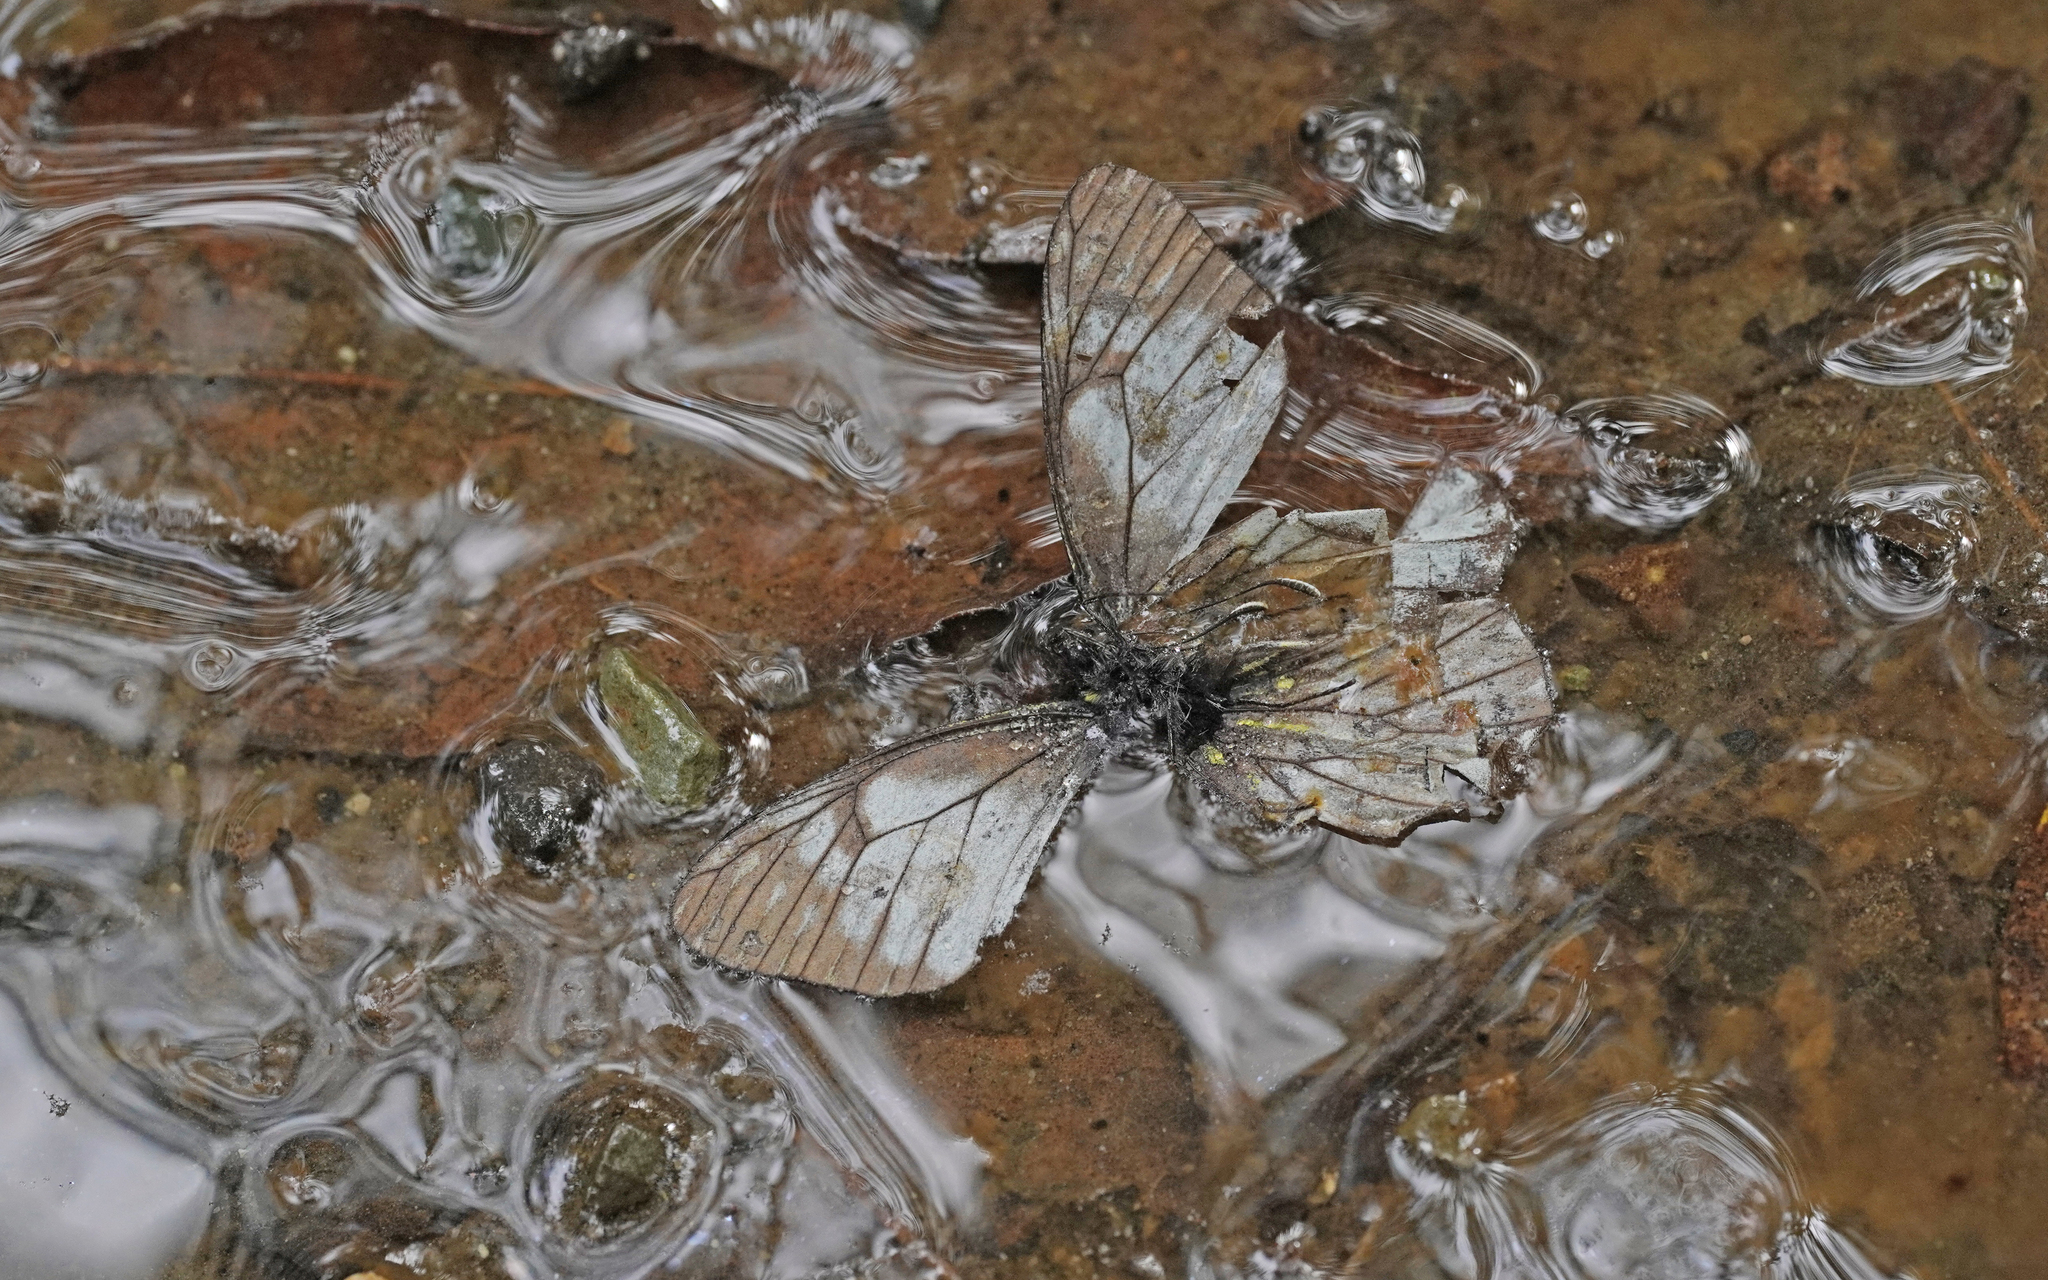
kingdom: Animalia
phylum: Arthropoda
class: Insecta
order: Lepidoptera
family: Pieridae
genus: Catasticta
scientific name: Catasticta notha
